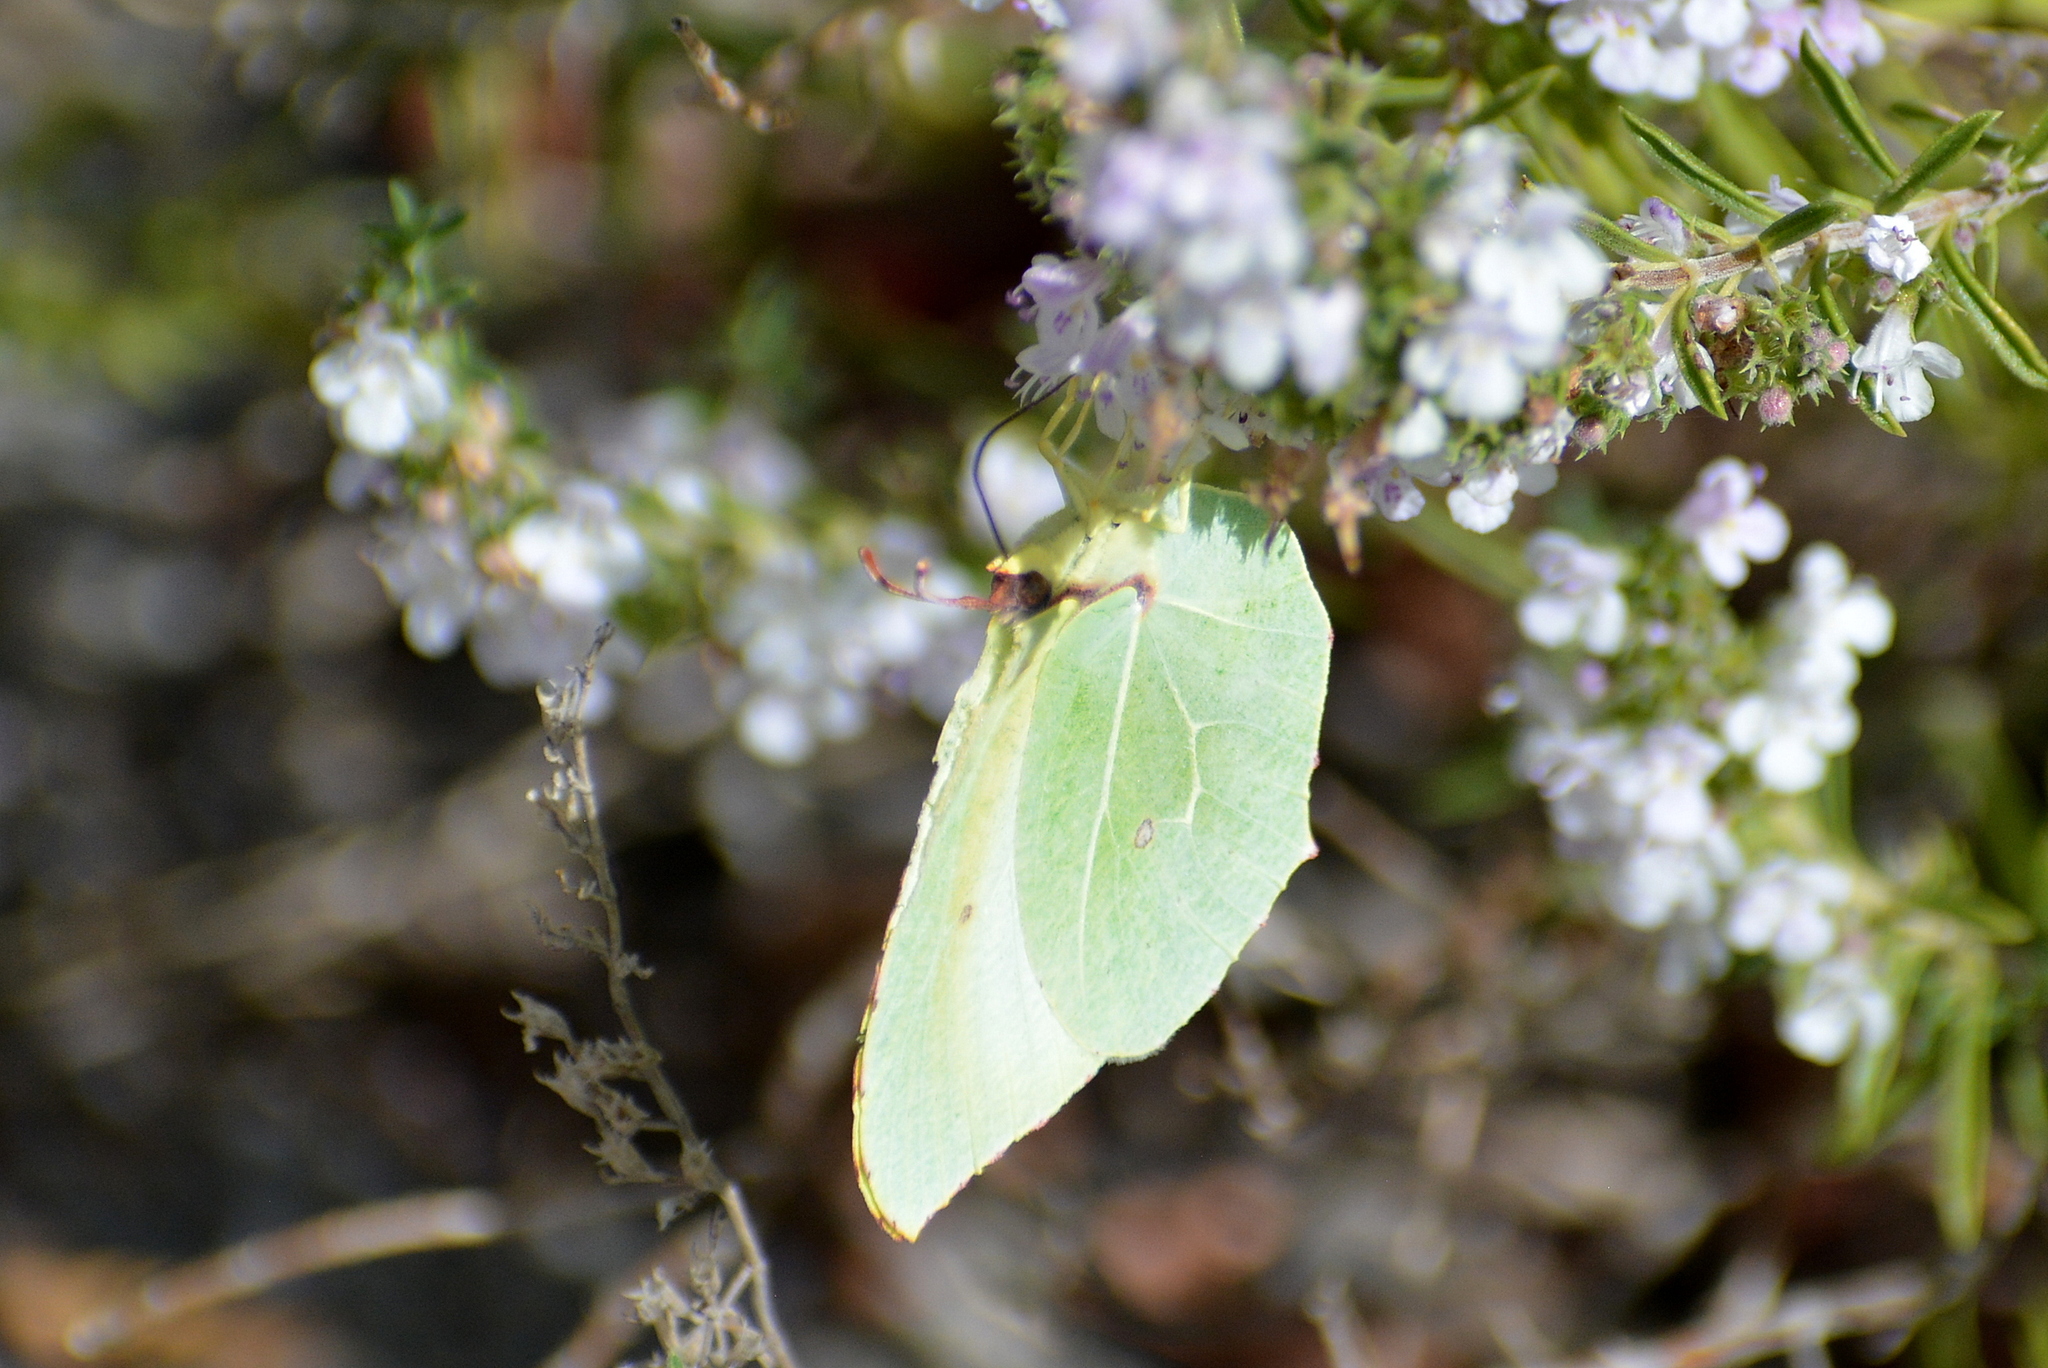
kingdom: Animalia
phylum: Arthropoda
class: Insecta
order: Lepidoptera
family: Pieridae
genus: Gonepteryx
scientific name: Gonepteryx cleopatra
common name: Cleopatra
